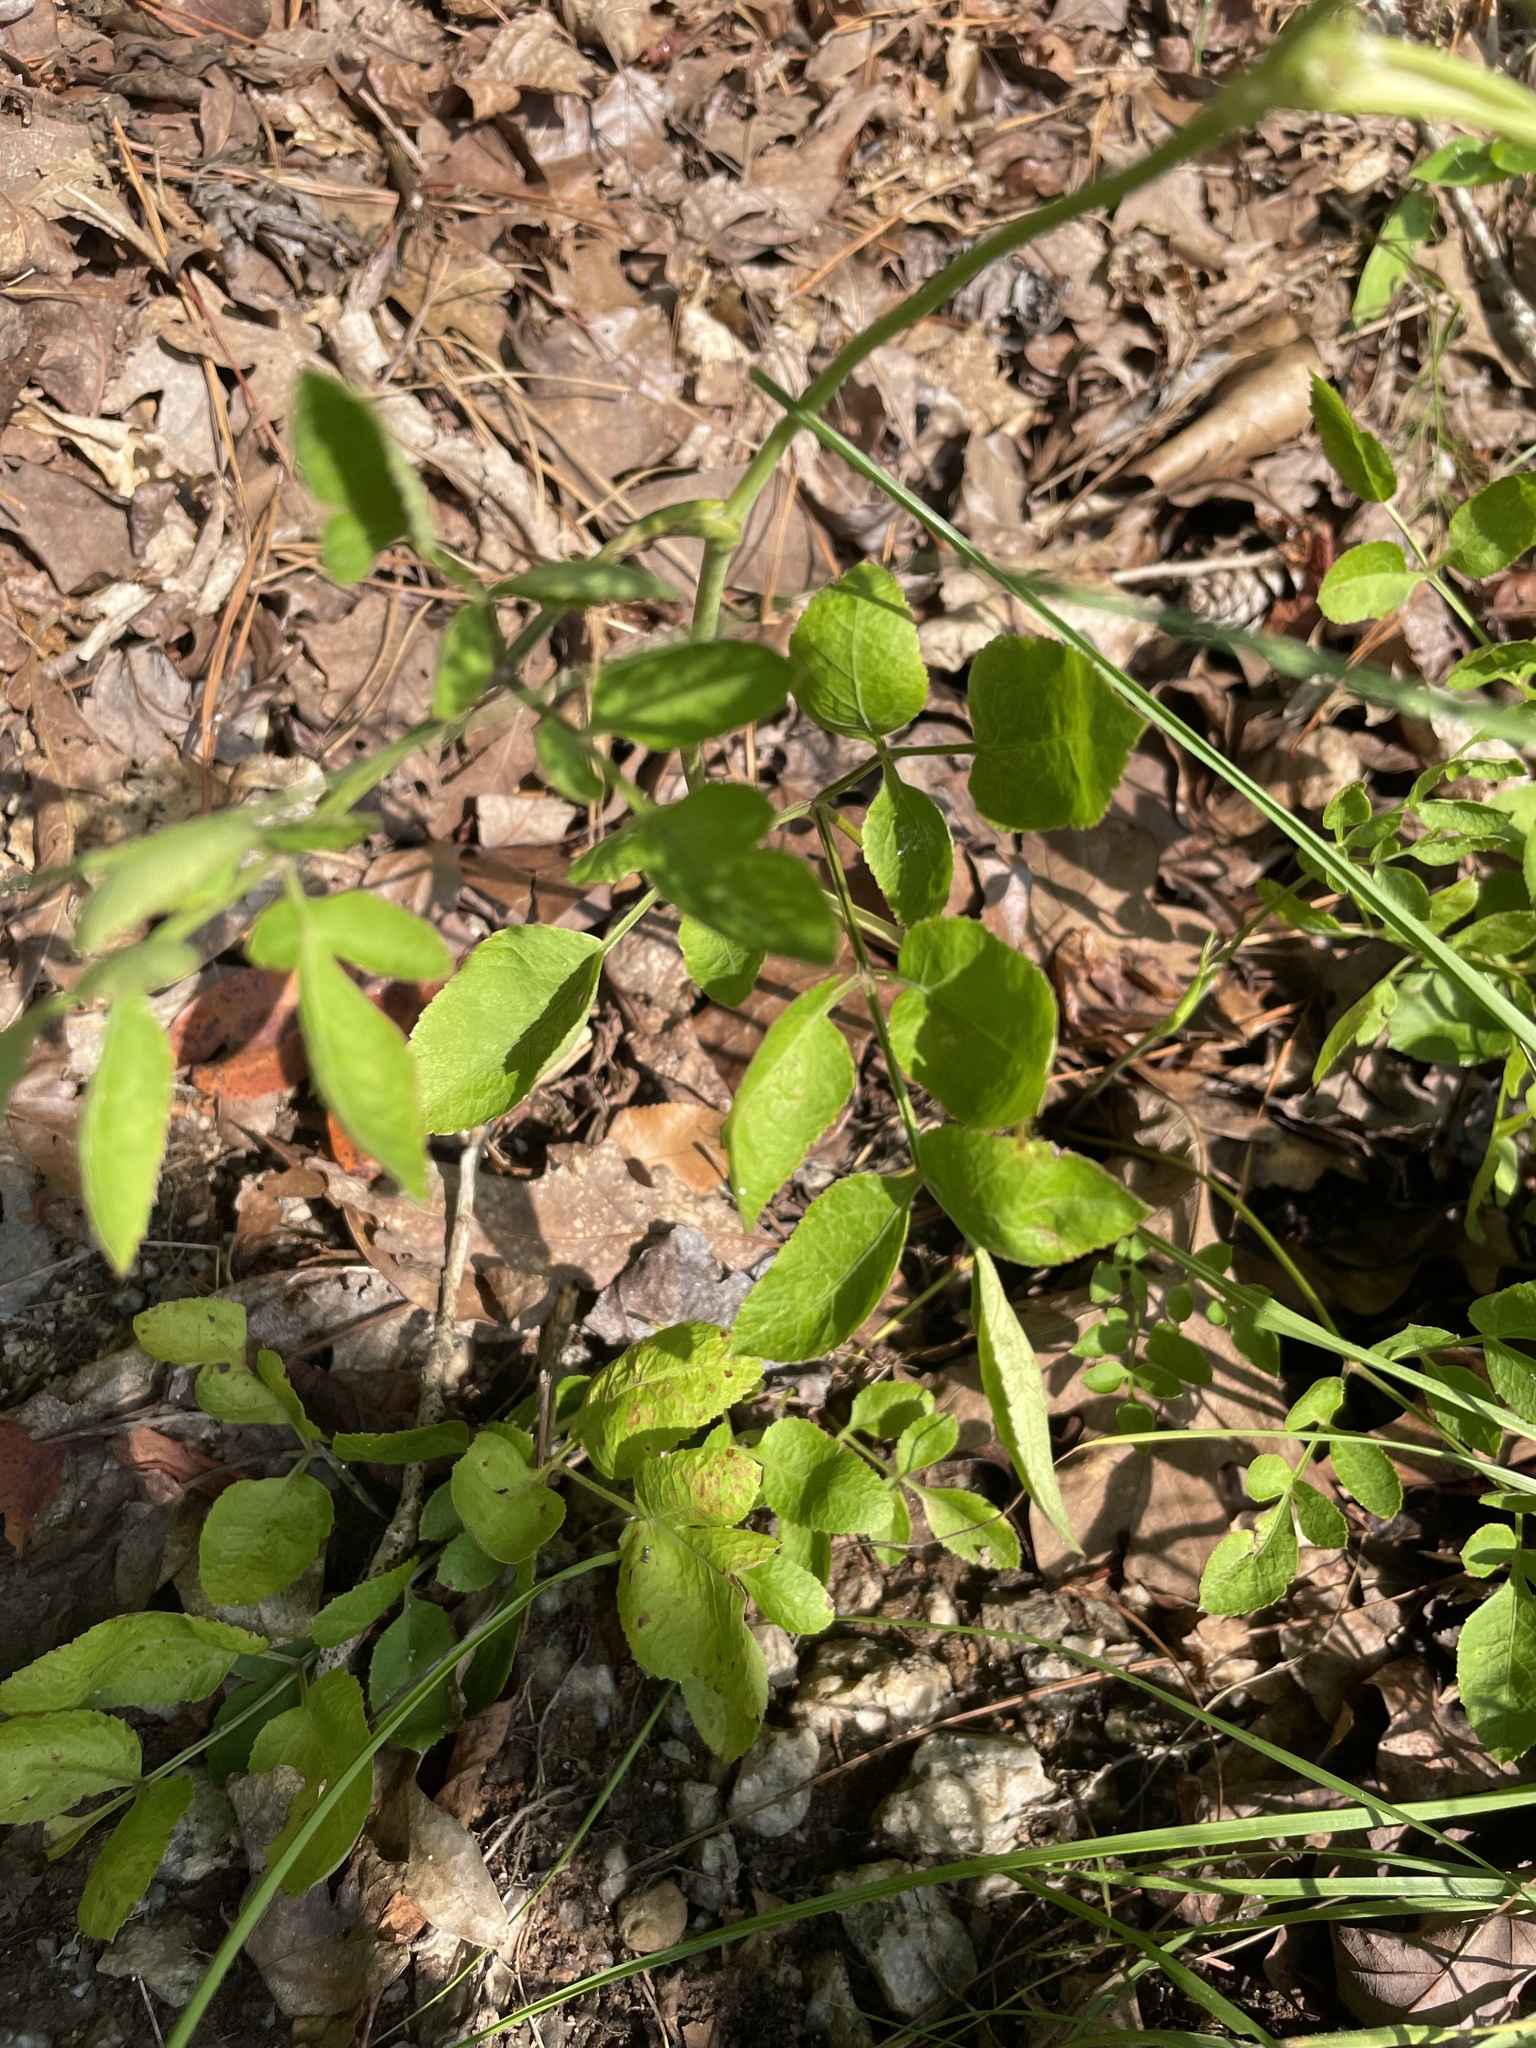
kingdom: Plantae
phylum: Tracheophyta
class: Magnoliopsida
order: Apiales
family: Apiaceae
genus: Angelica
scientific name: Angelica venenosa
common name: Hairy angelica
